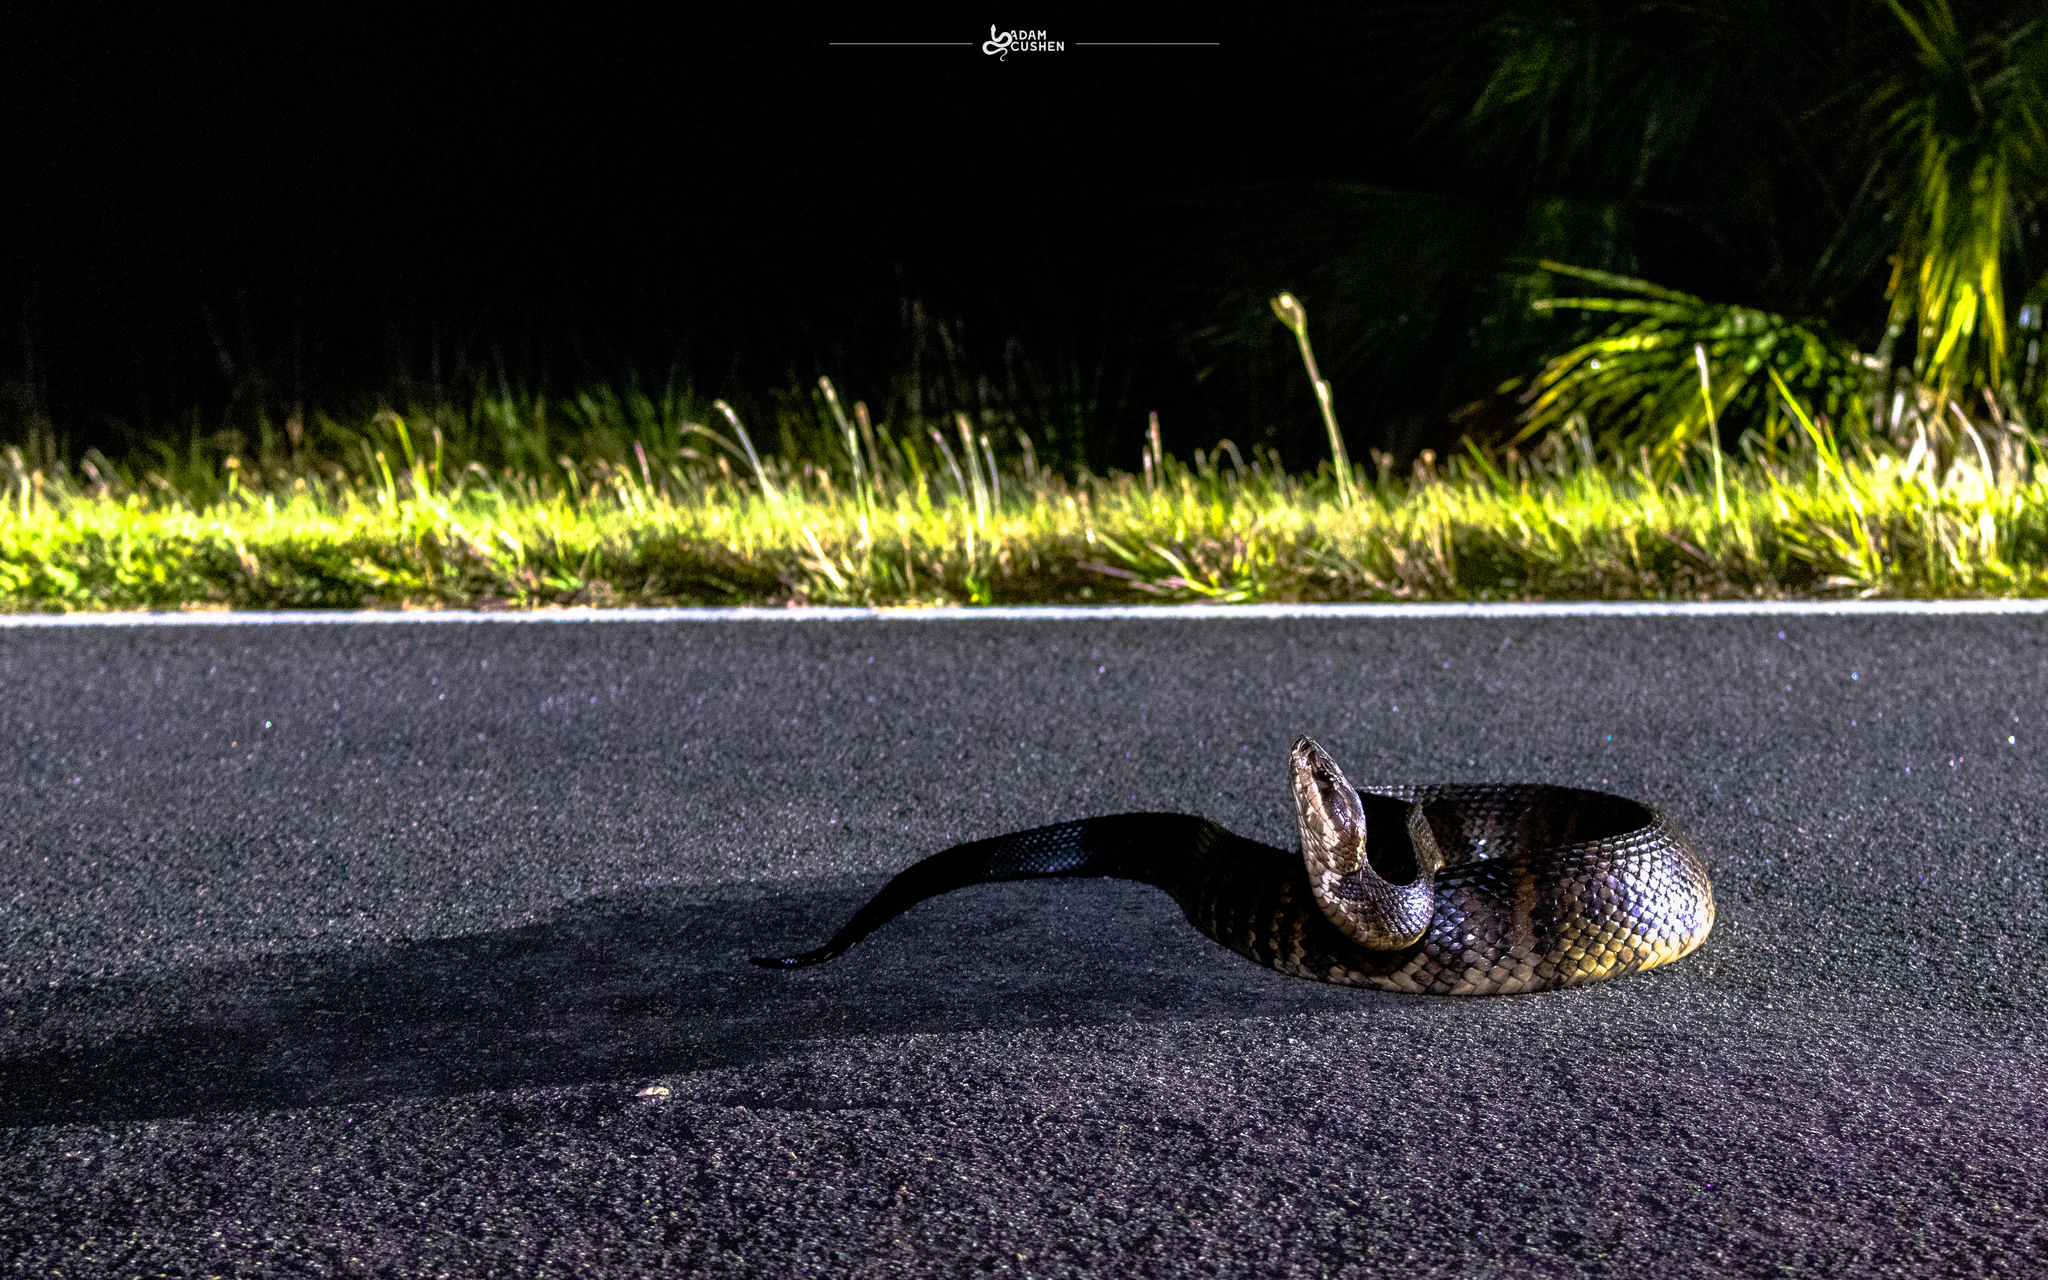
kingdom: Animalia
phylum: Chordata
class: Squamata
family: Viperidae
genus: Agkistrodon
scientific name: Agkistrodon conanti
